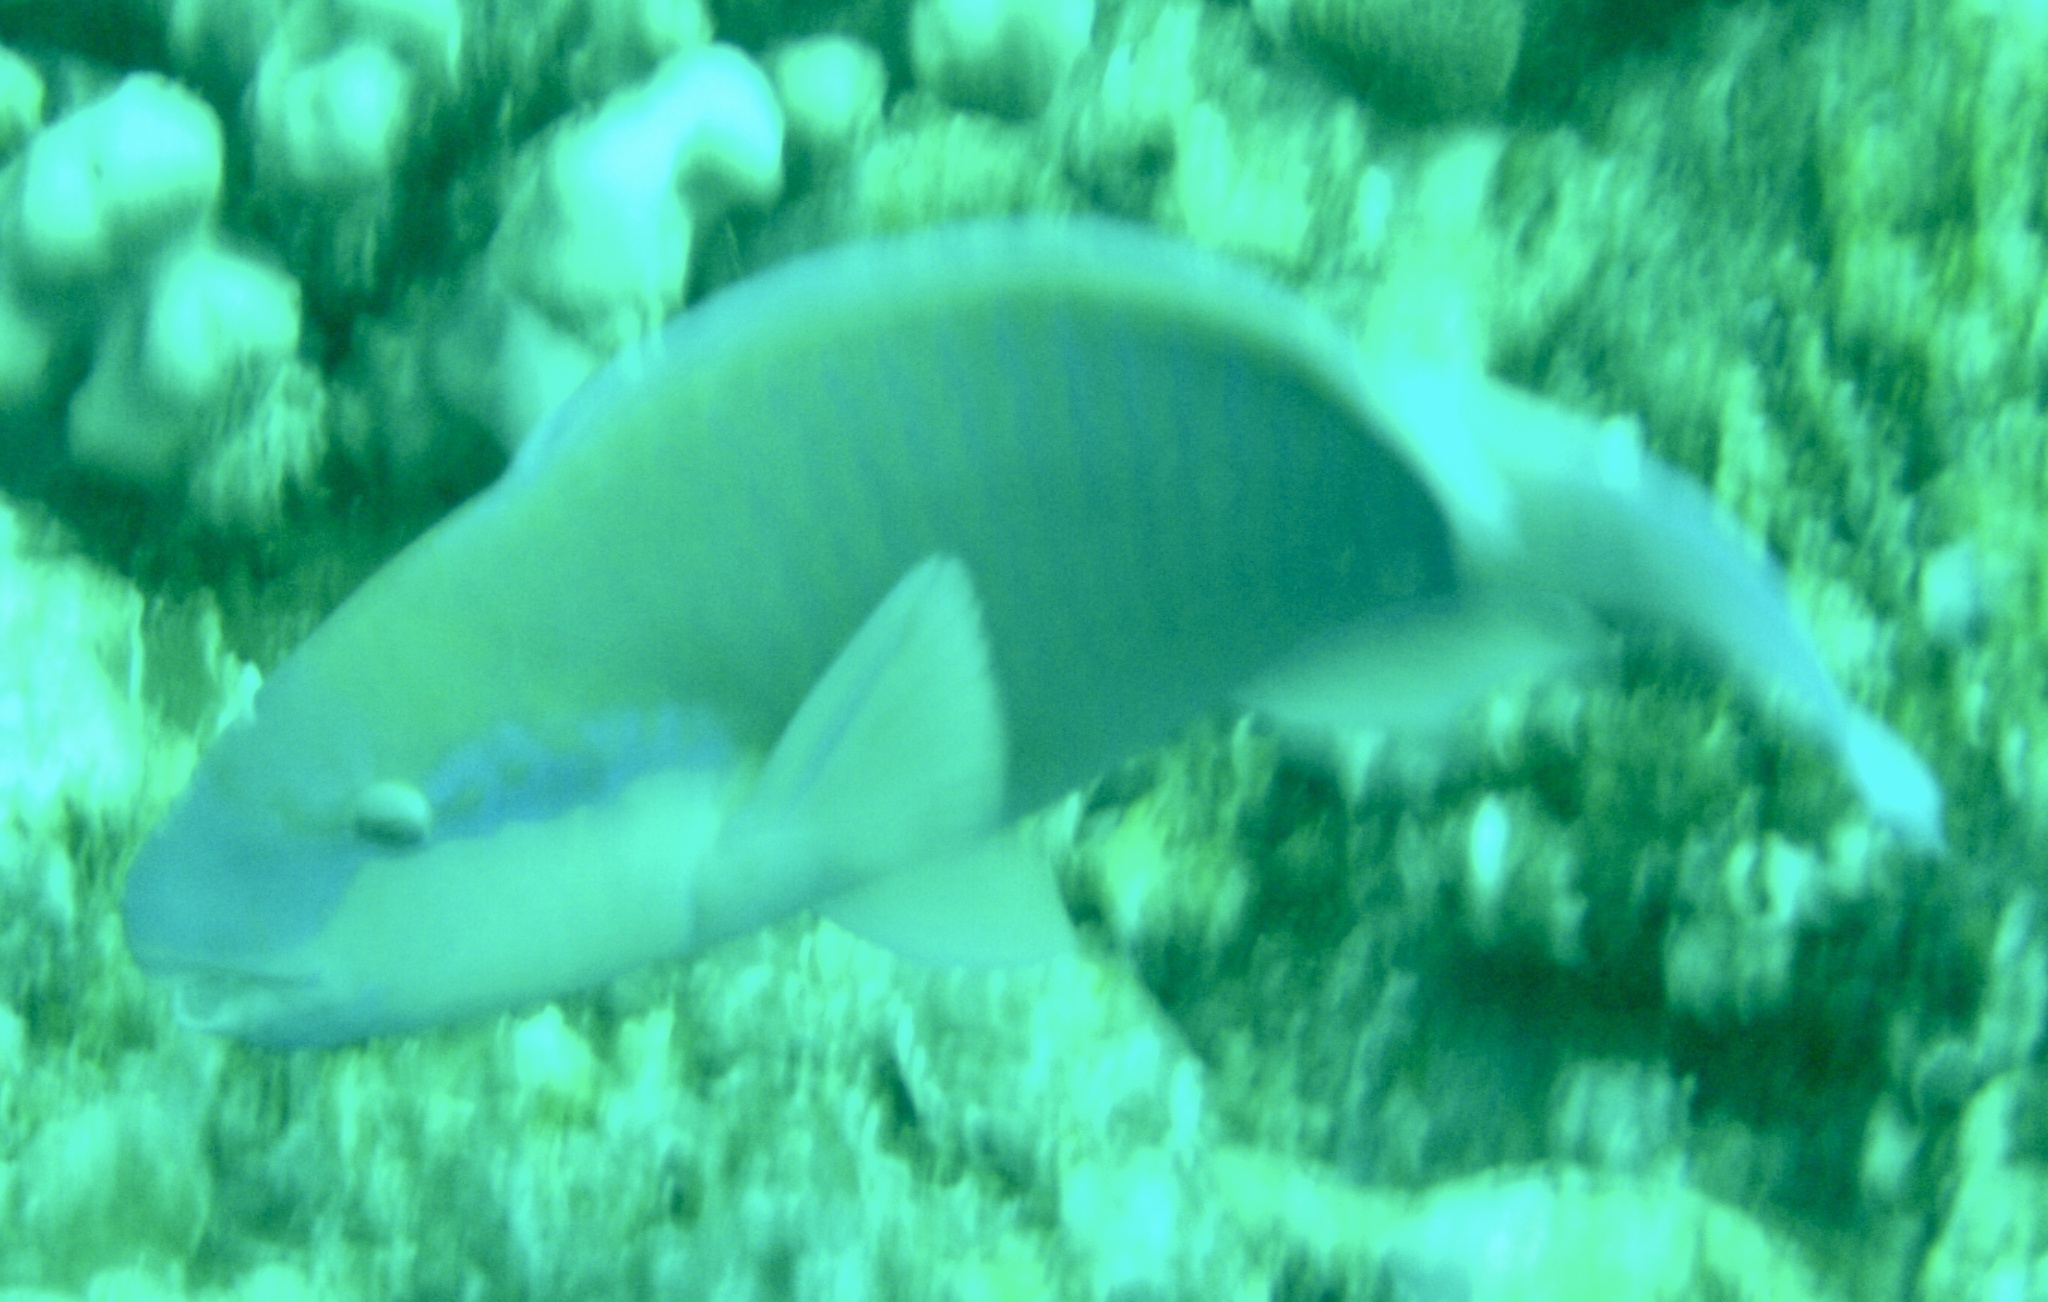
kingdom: Animalia
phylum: Chordata
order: Perciformes
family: Scaridae
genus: Chlorurus
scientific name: Chlorurus sordidus
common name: Bullethead parrotfish
